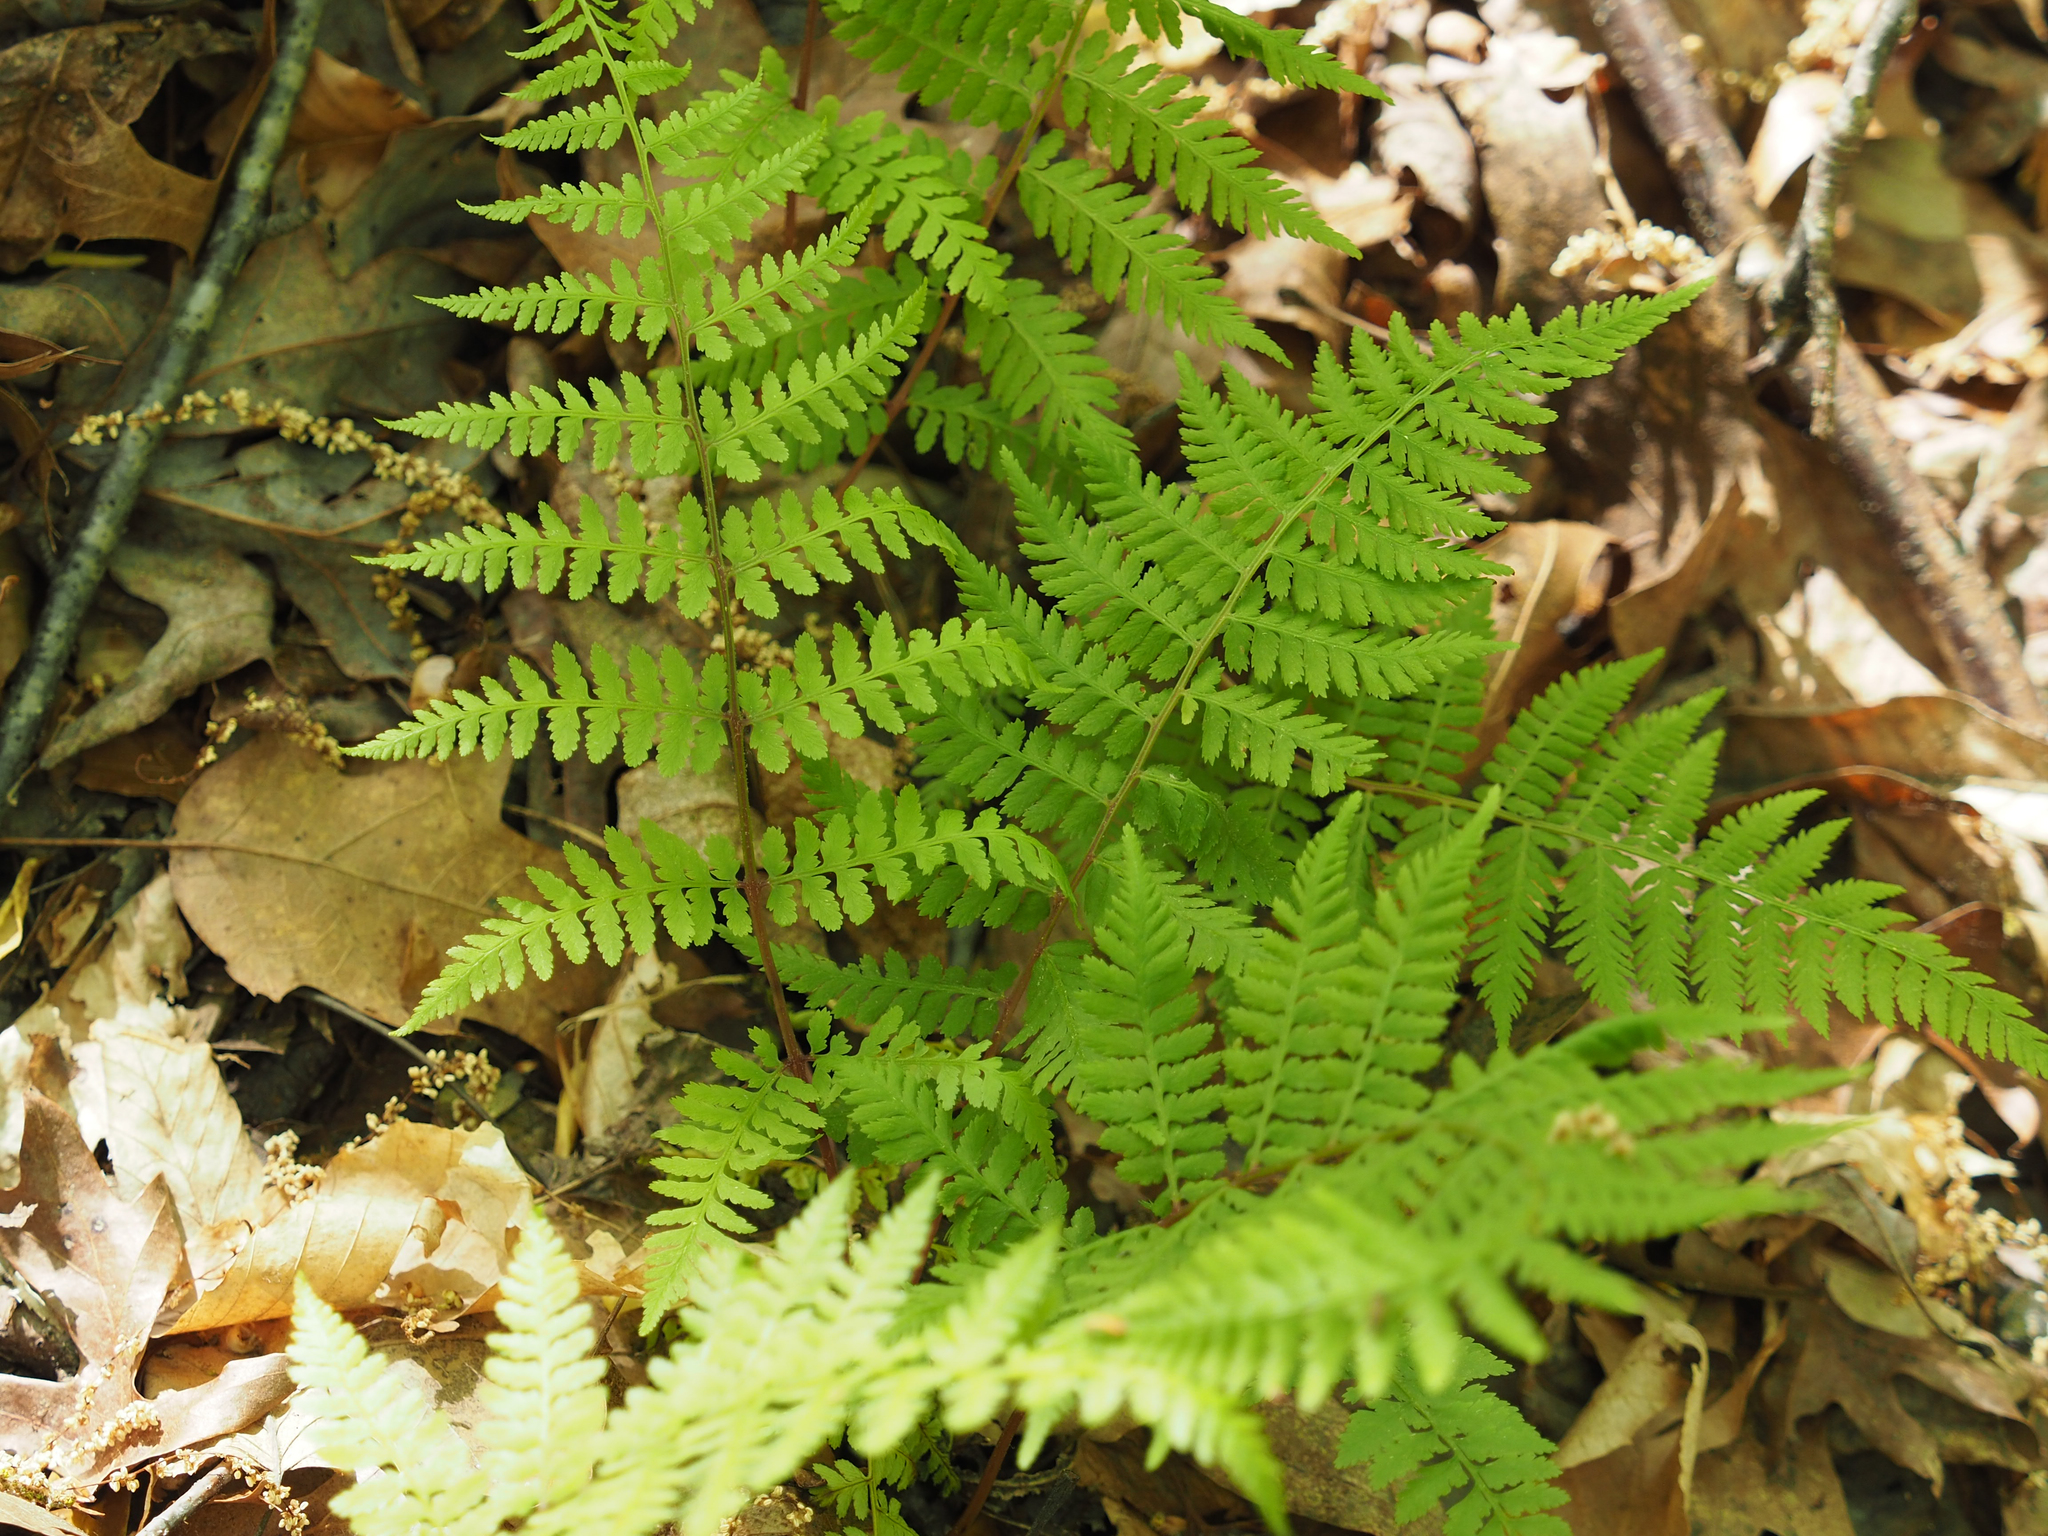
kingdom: Plantae
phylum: Tracheophyta
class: Polypodiopsida
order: Polypodiales
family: Athyriaceae
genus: Athyrium
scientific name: Athyrium asplenioides
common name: Southern lady fern
